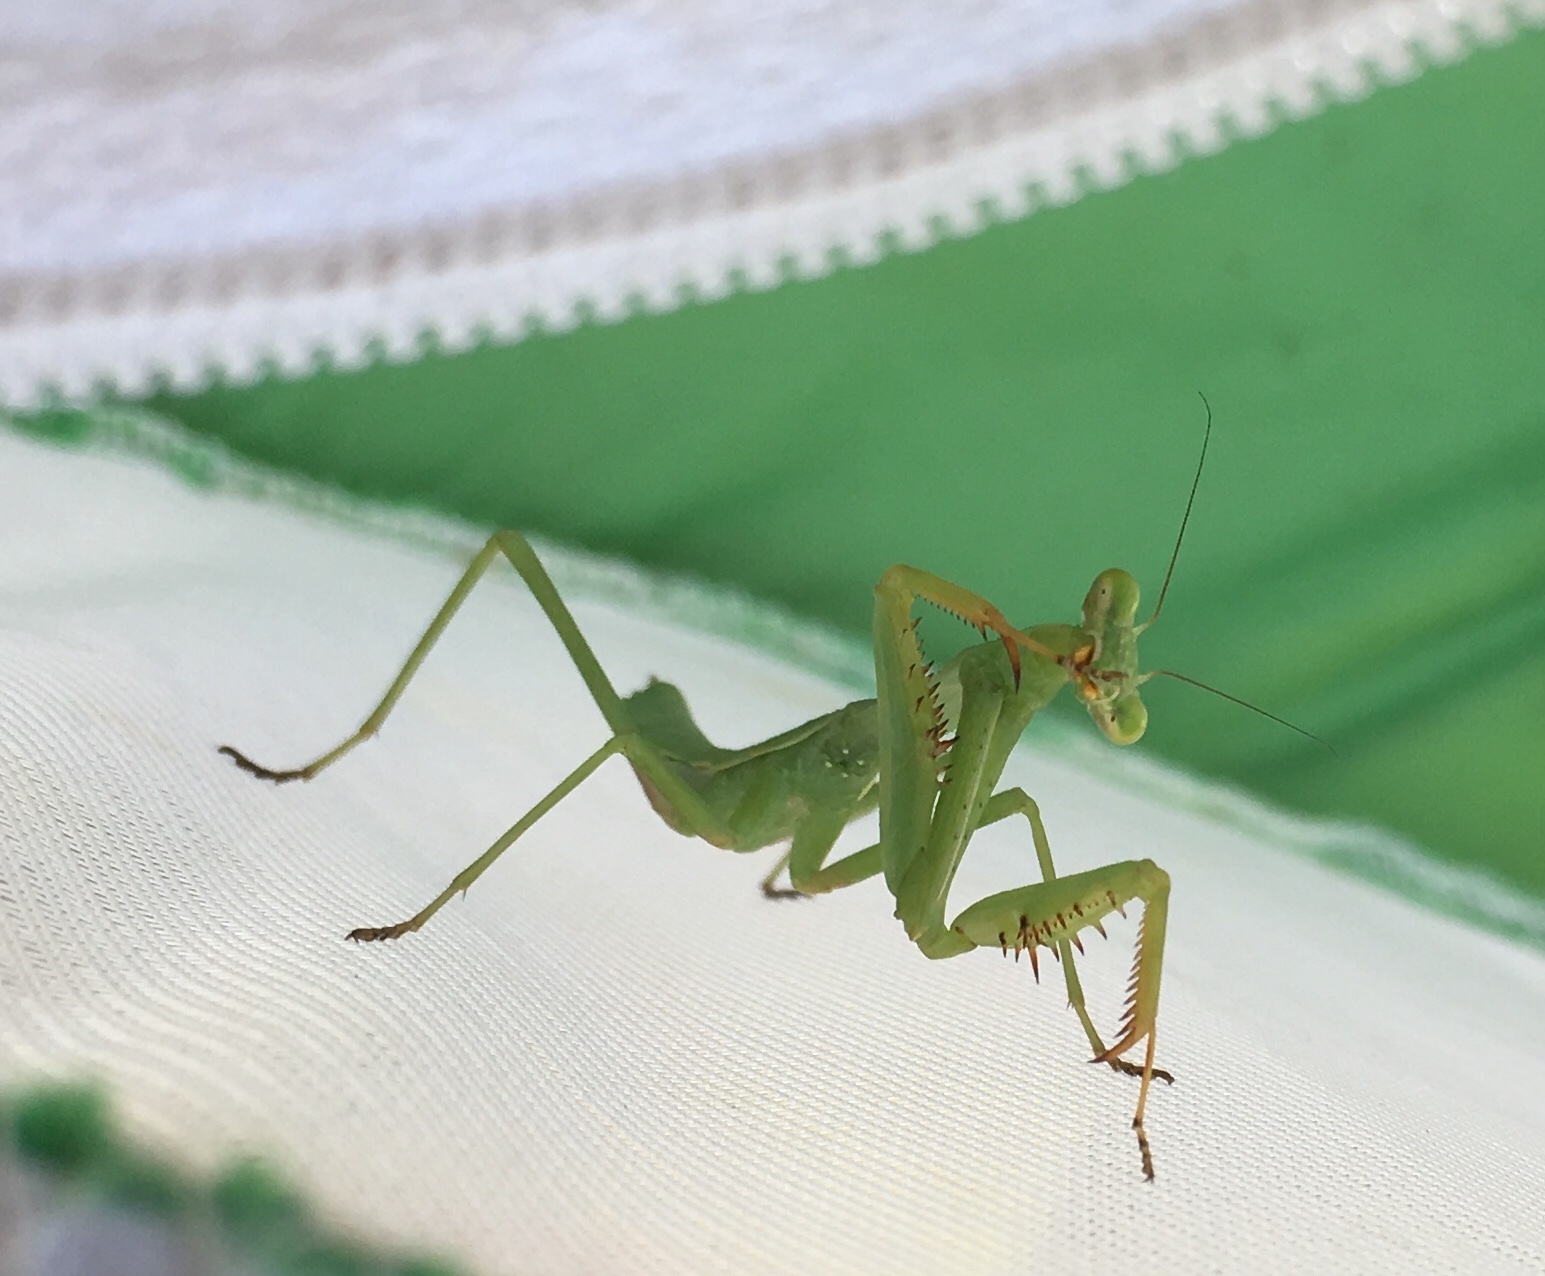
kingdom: Animalia
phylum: Arthropoda
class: Insecta
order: Mantodea
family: Mantidae
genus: Tenodera
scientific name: Tenodera sinensis
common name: Chinese mantis
